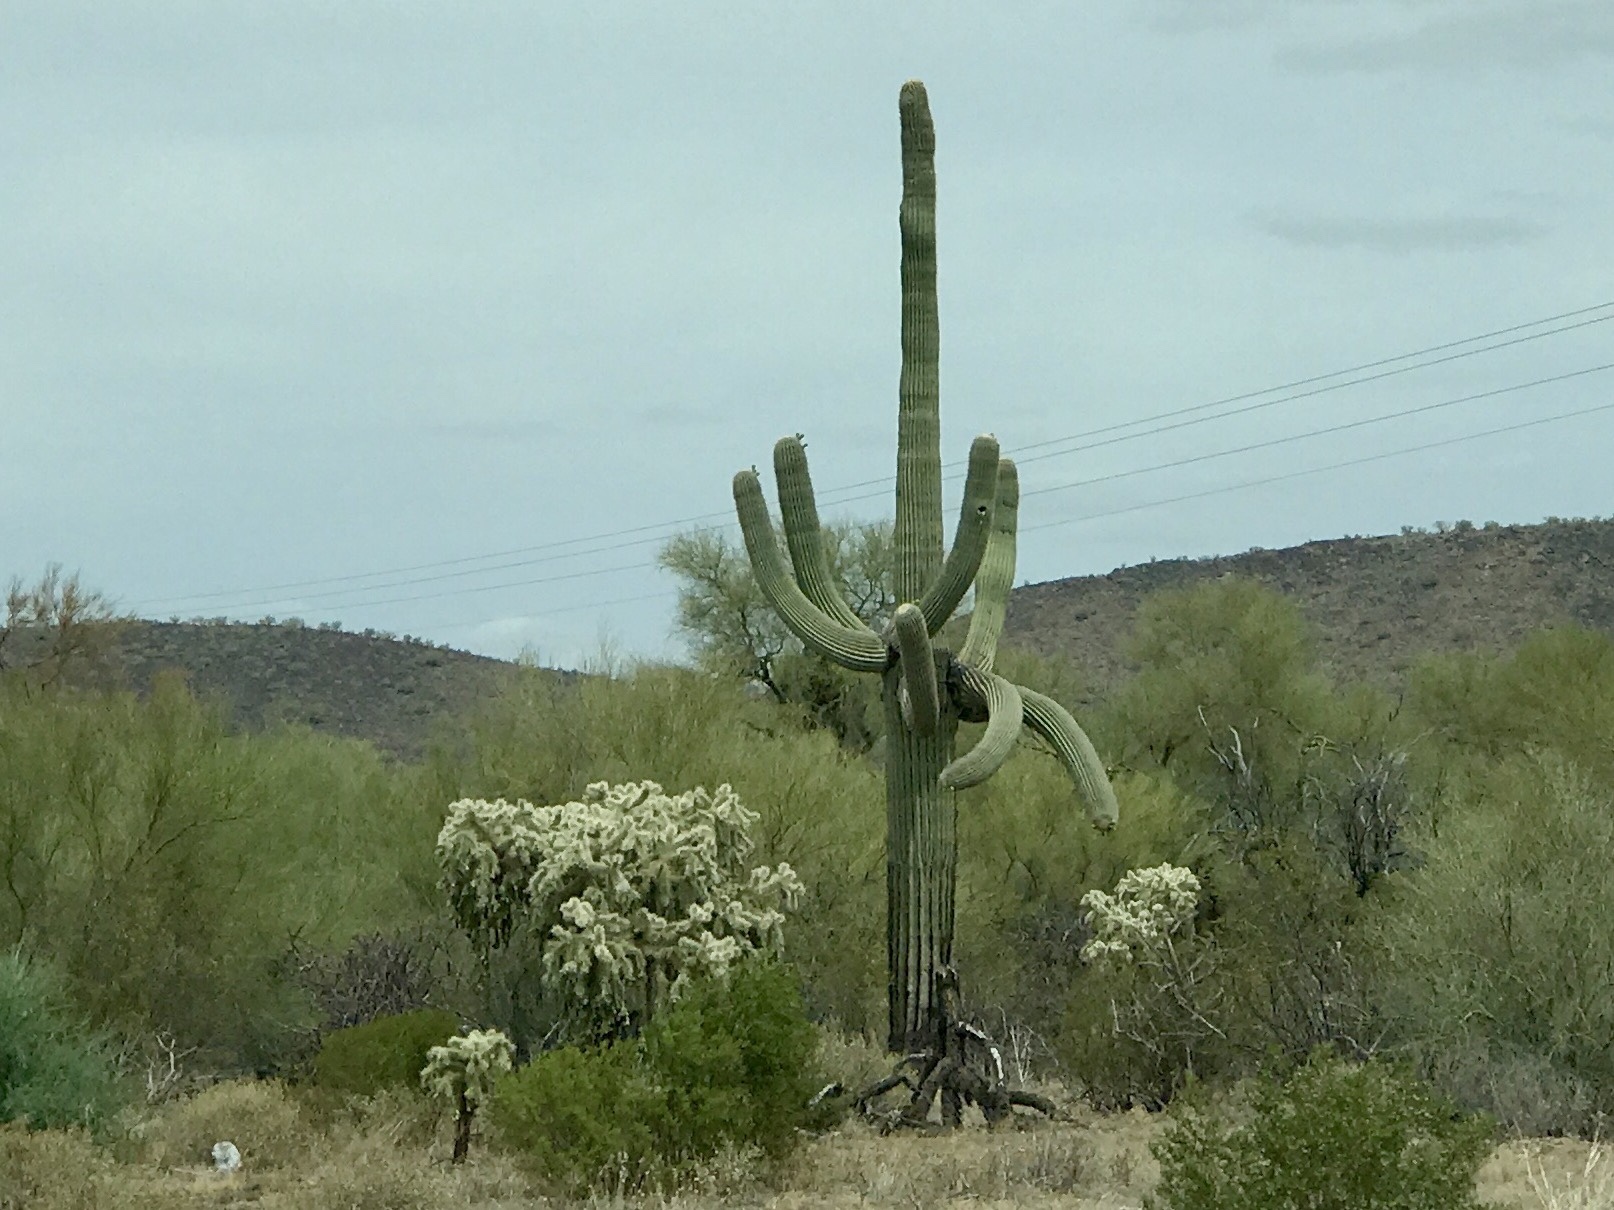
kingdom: Plantae
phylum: Tracheophyta
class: Magnoliopsida
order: Caryophyllales
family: Cactaceae
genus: Carnegiea
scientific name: Carnegiea gigantea
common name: Saguaro
